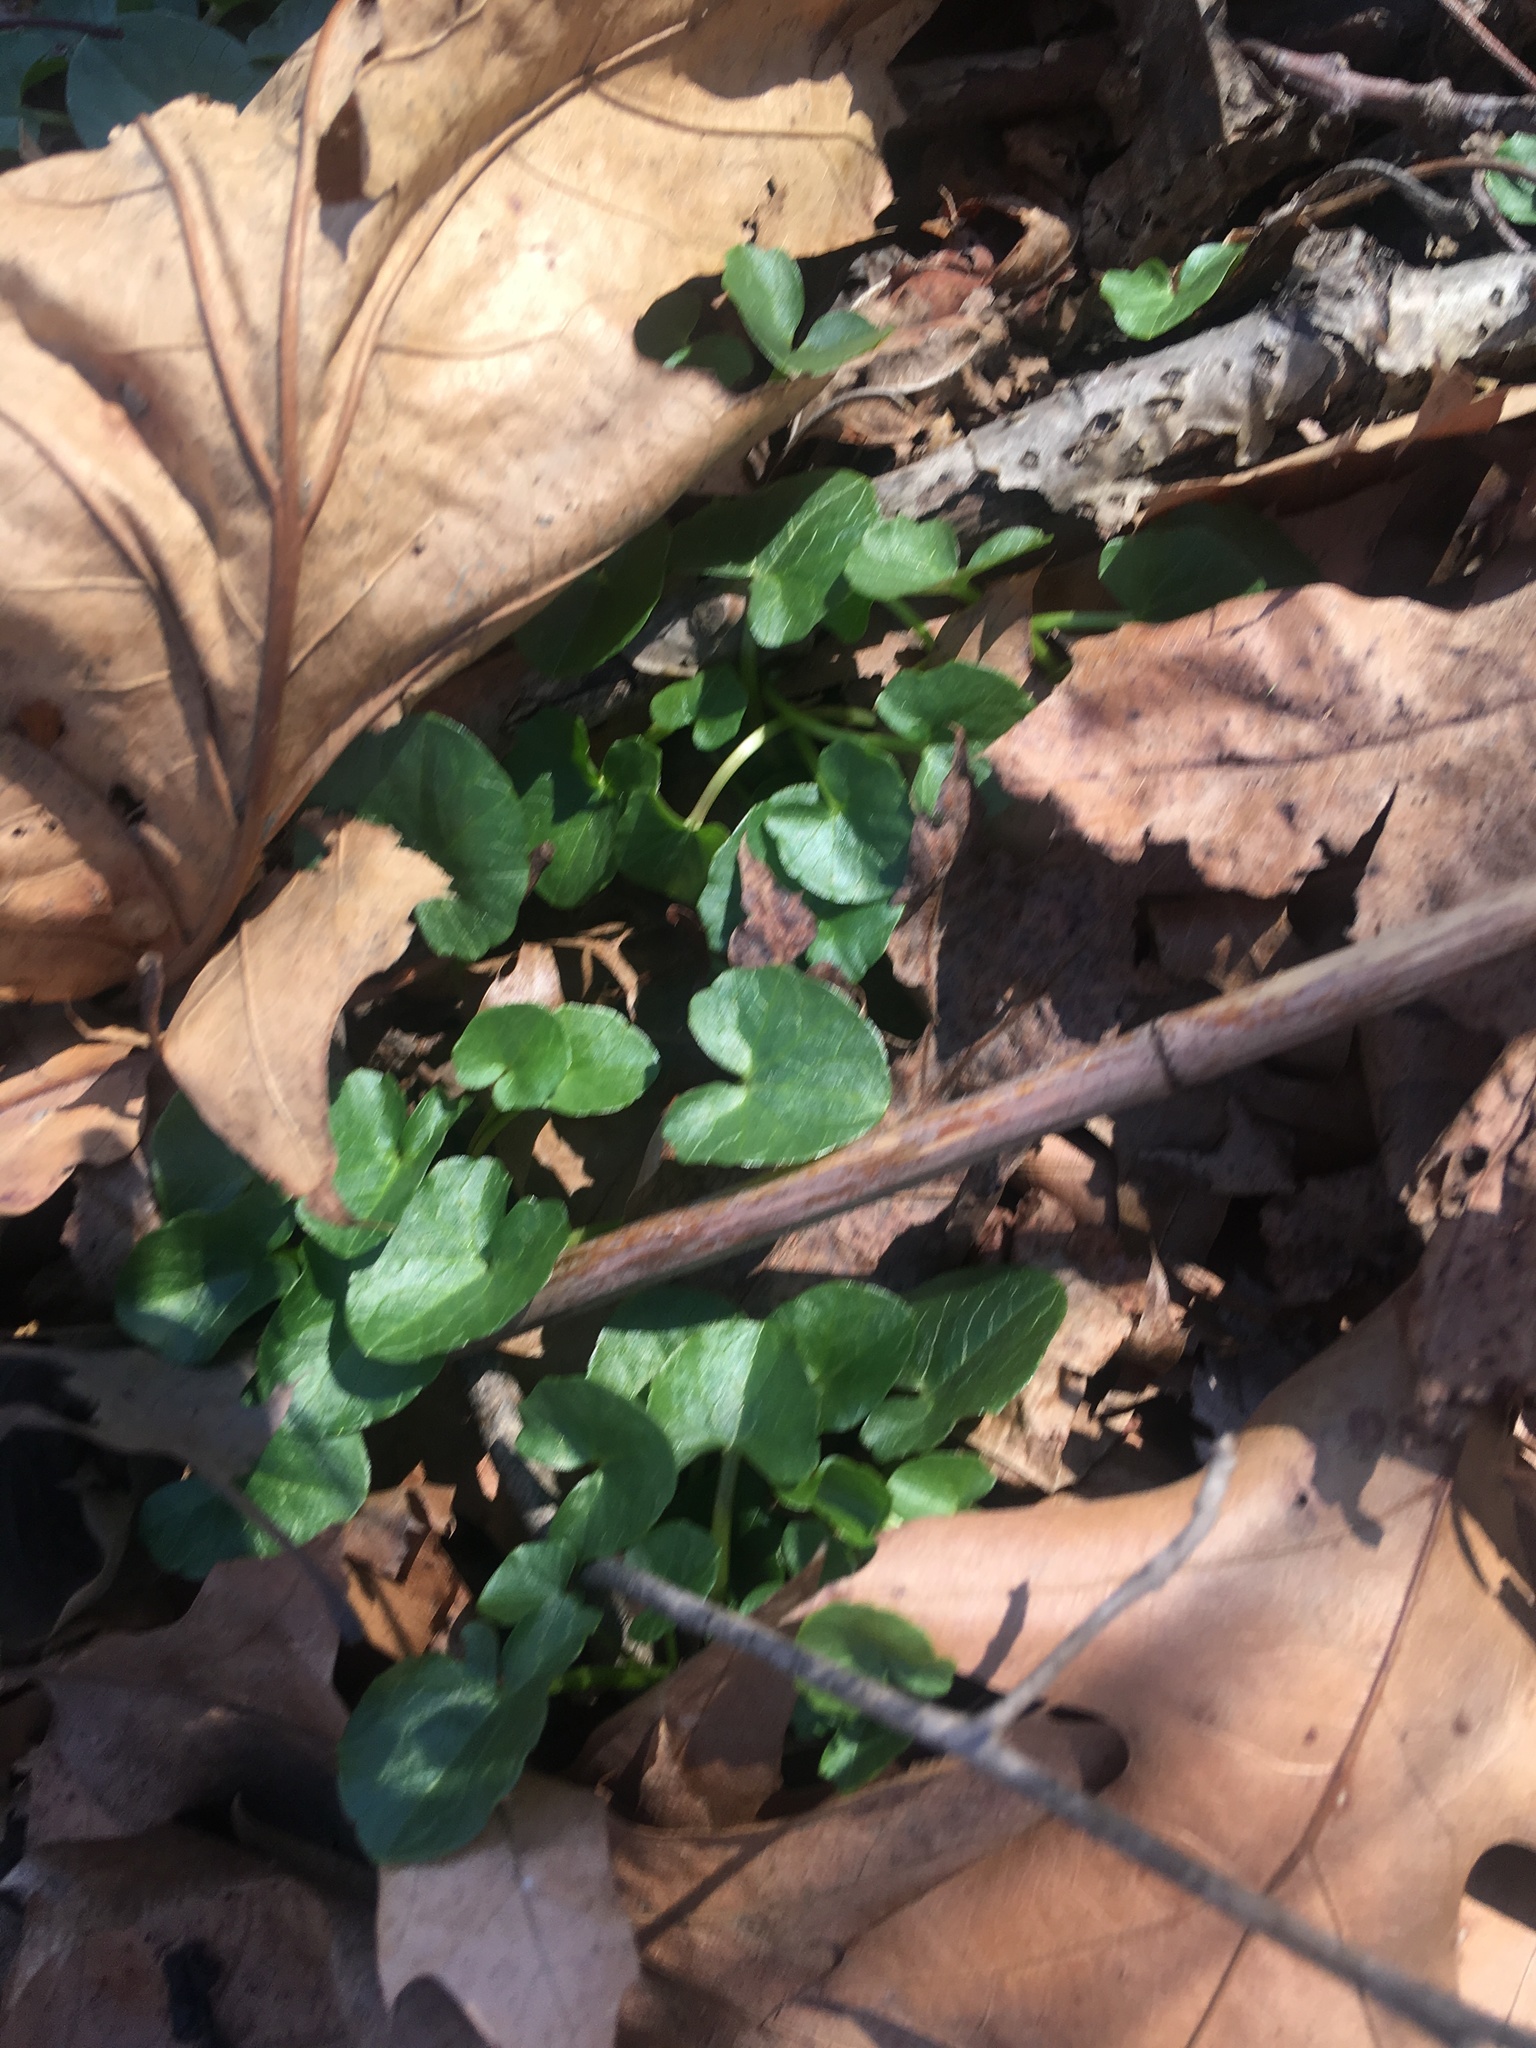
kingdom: Plantae
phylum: Tracheophyta
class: Magnoliopsida
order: Ranunculales
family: Ranunculaceae
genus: Ficaria
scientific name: Ficaria verna
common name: Lesser celandine
